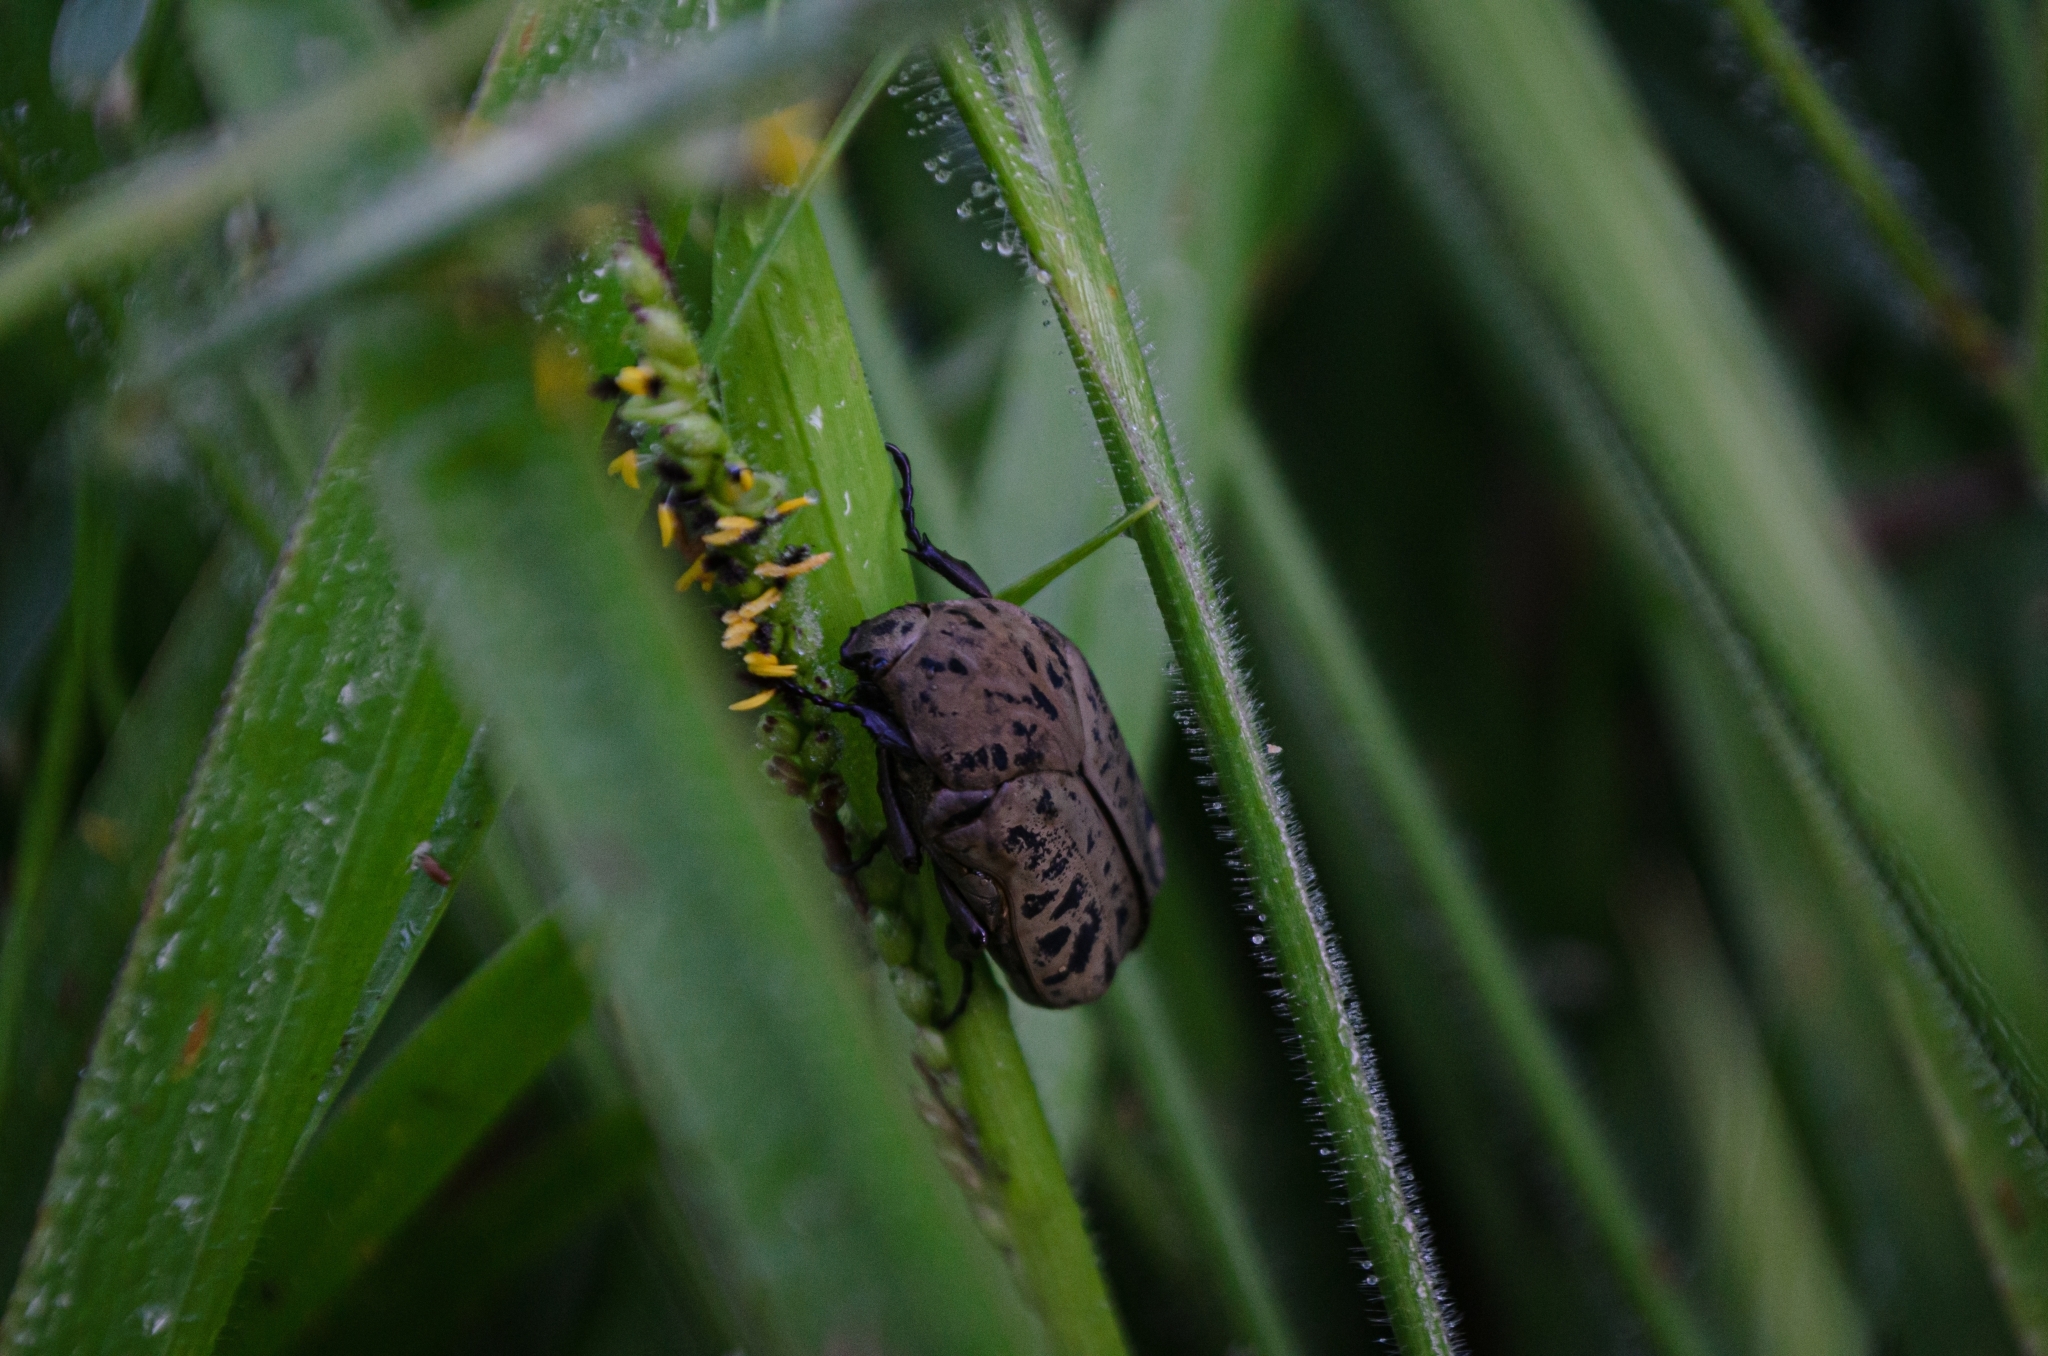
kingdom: Animalia
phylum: Arthropoda
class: Insecta
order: Coleoptera
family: Scarabaeidae
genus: Gymnetis
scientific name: Gymnetis strigosa
